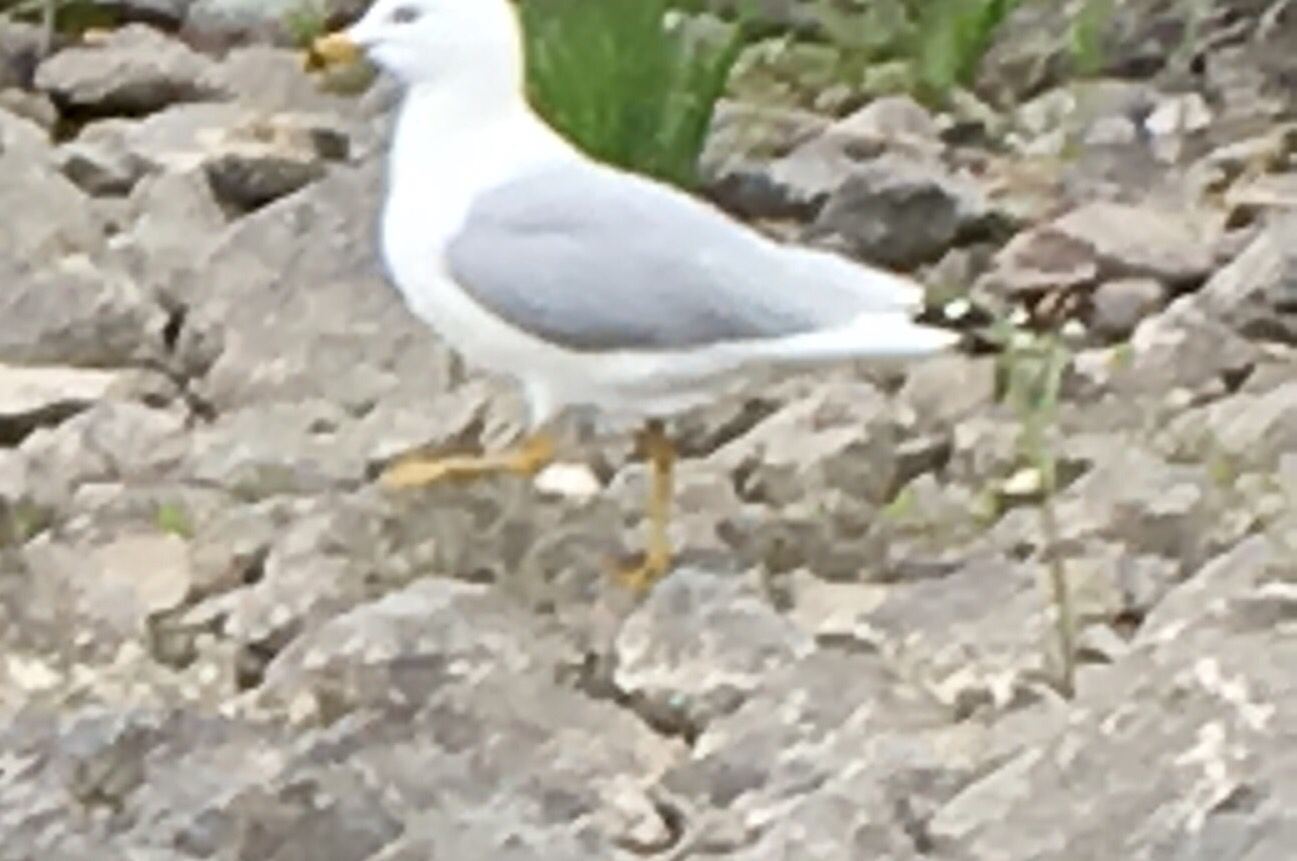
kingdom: Animalia
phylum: Chordata
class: Aves
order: Charadriiformes
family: Laridae
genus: Larus
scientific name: Larus delawarensis
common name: Ring-billed gull
